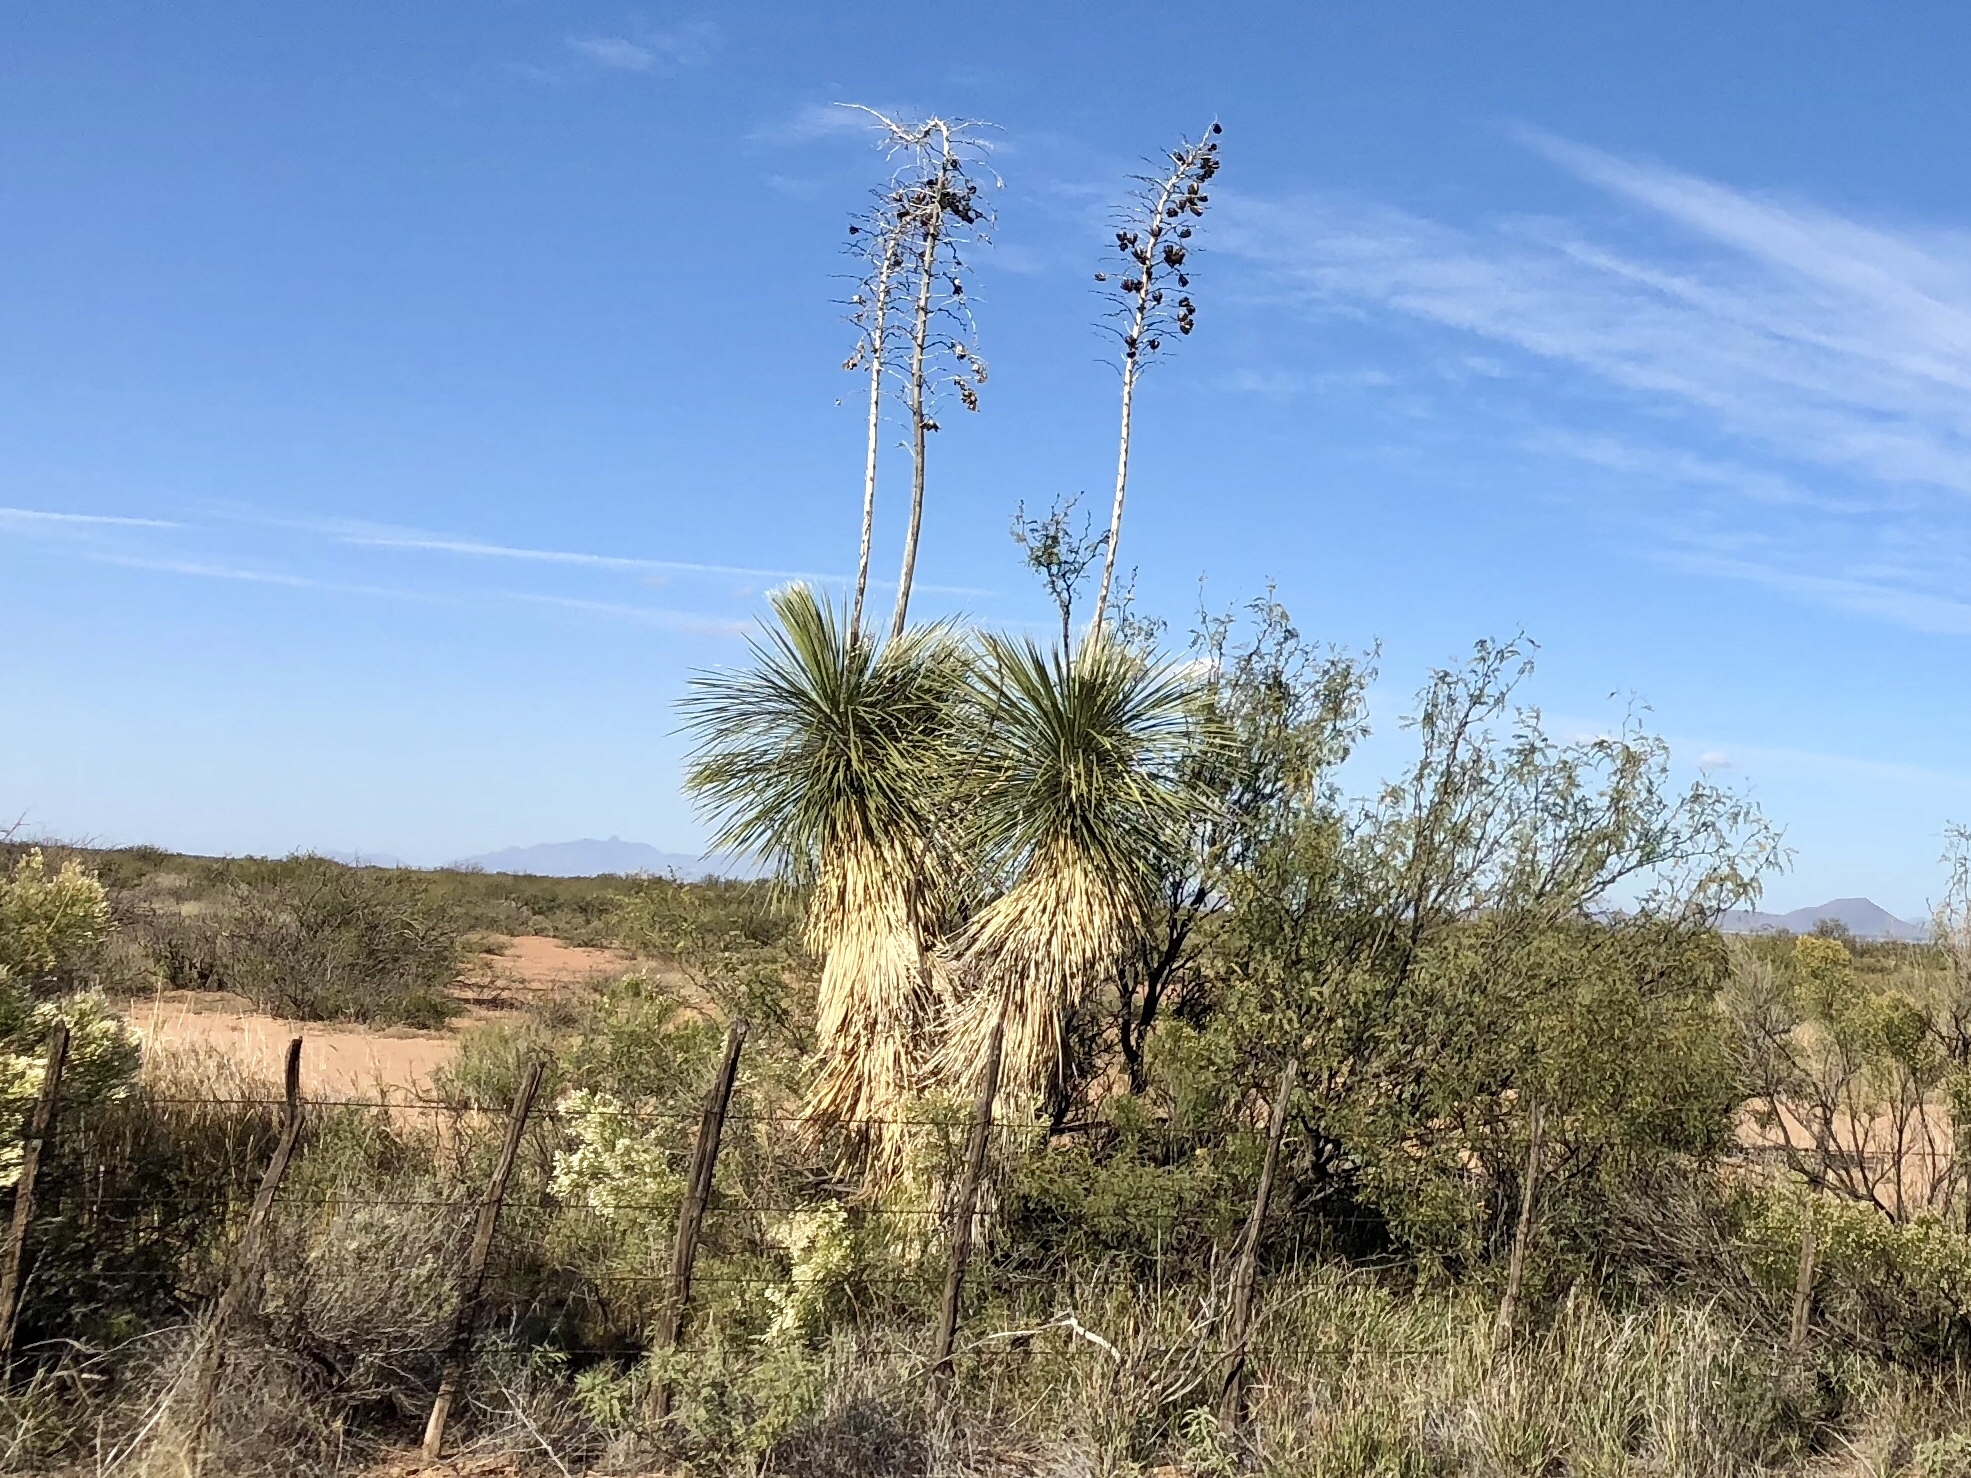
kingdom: Plantae
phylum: Tracheophyta
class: Liliopsida
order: Asparagales
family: Asparagaceae
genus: Yucca
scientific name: Yucca elata
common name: Palmella
